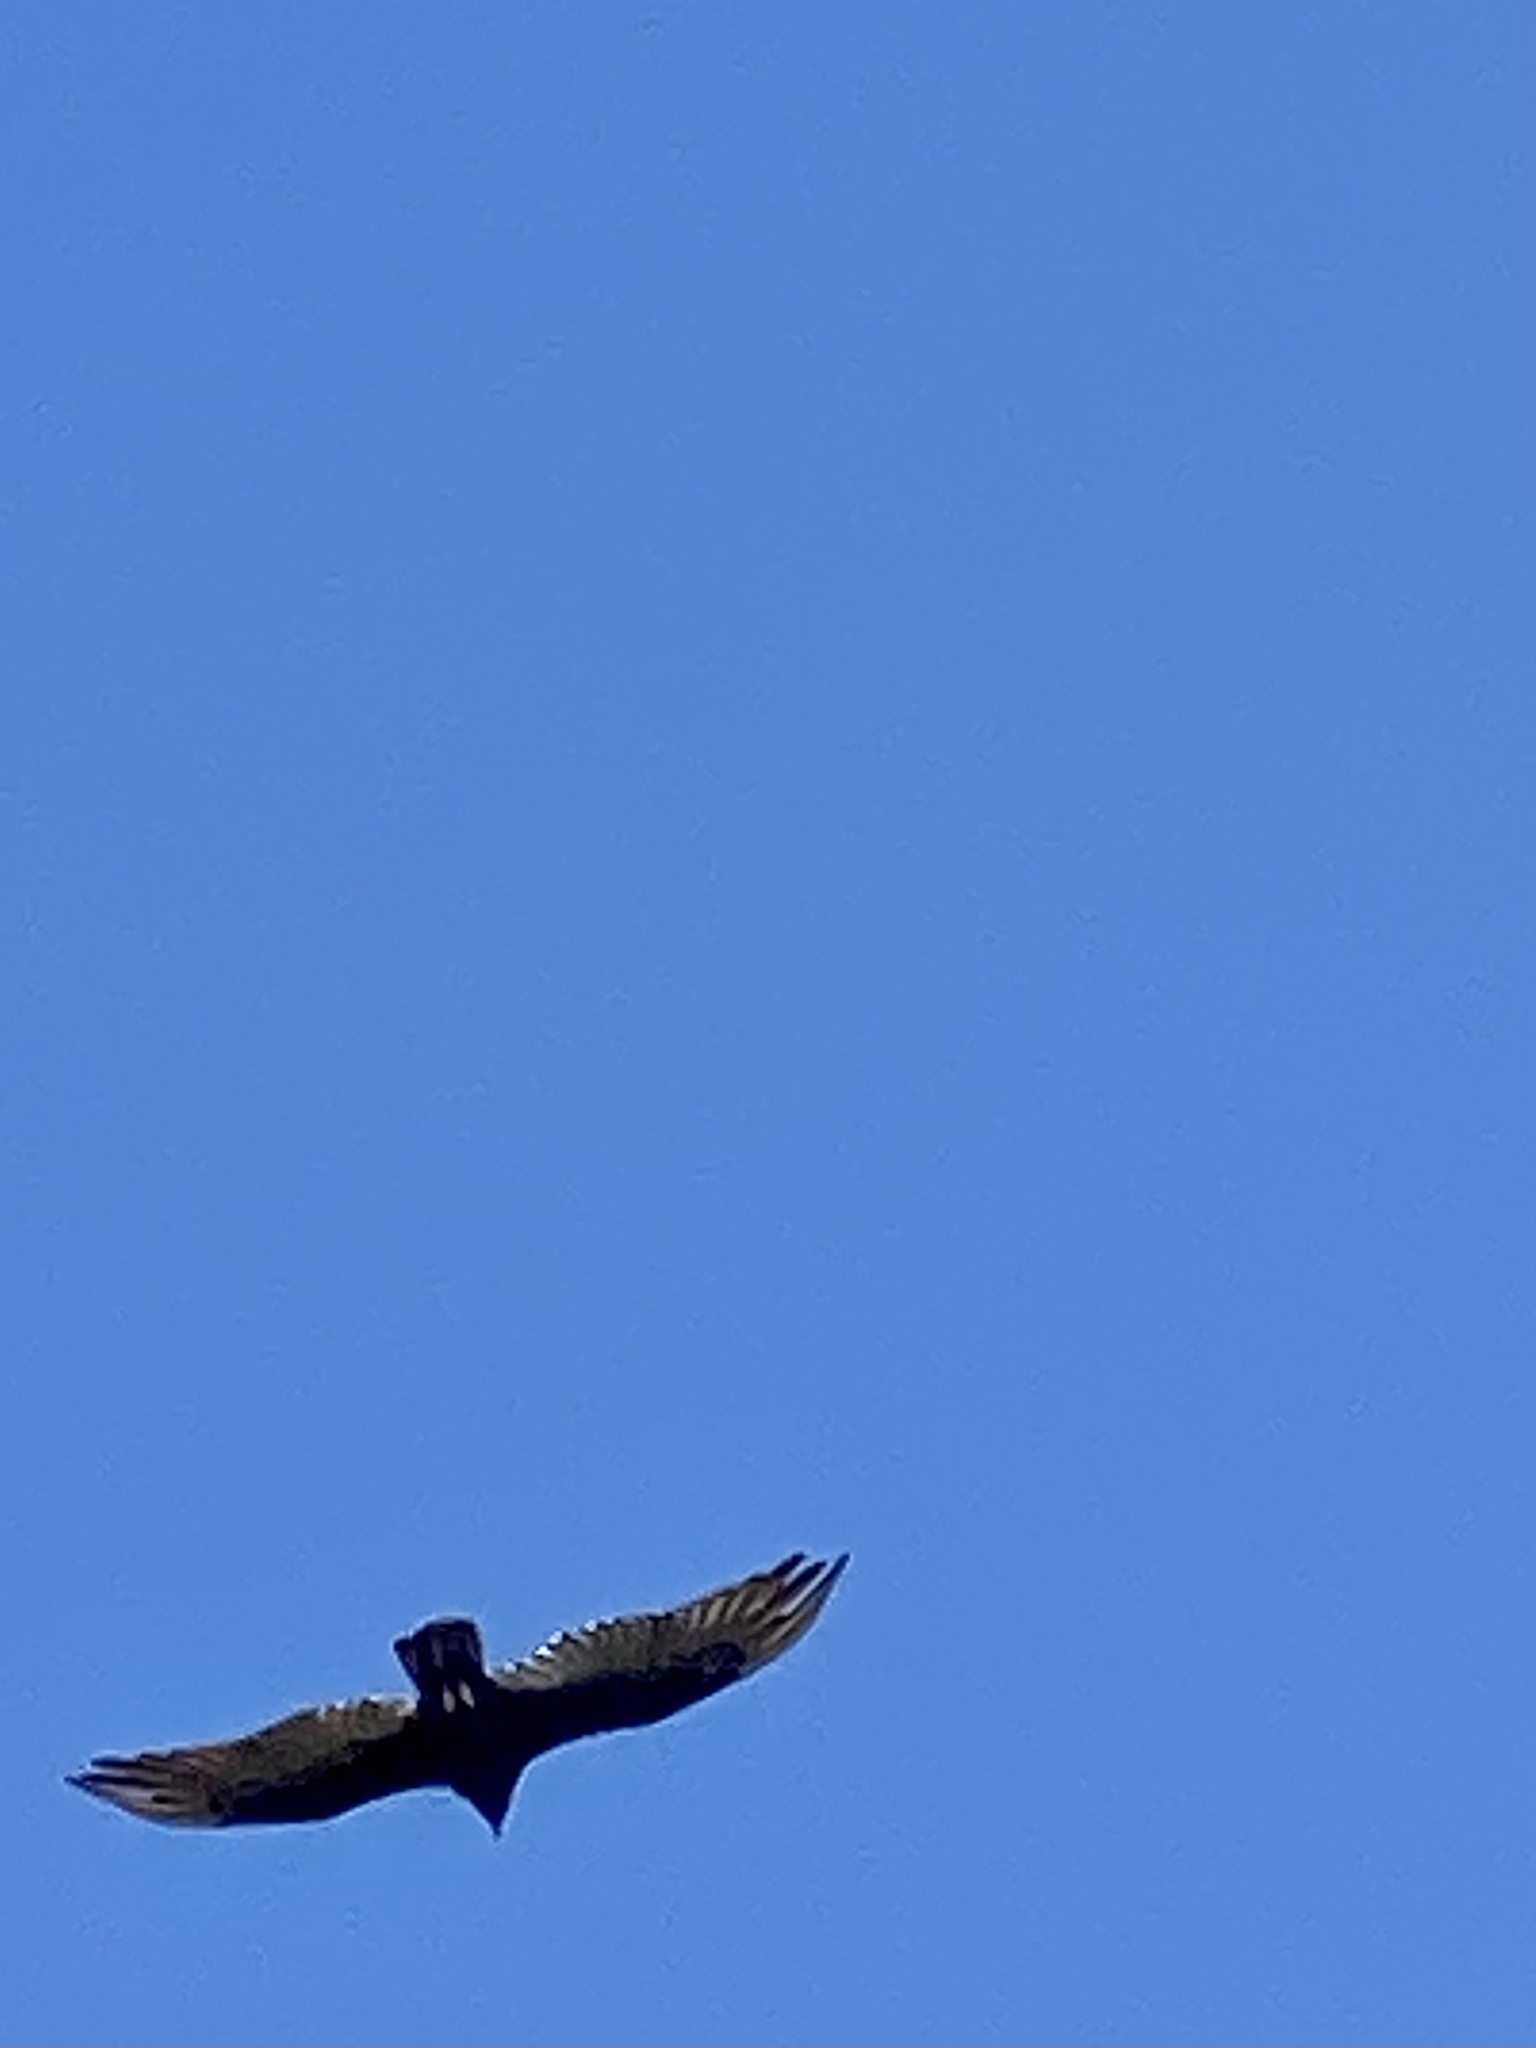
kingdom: Animalia
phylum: Chordata
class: Aves
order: Accipitriformes
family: Cathartidae
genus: Cathartes
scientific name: Cathartes aura
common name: Turkey vulture
